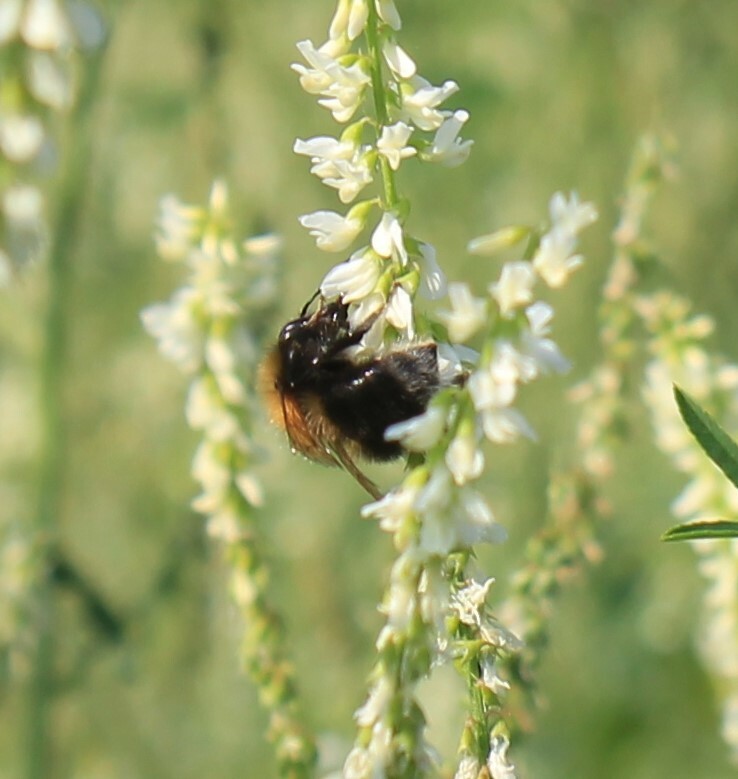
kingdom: Animalia
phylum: Arthropoda
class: Insecta
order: Hymenoptera
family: Apidae
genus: Bombus
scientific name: Bombus hypnorum
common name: New garden bumblebee
